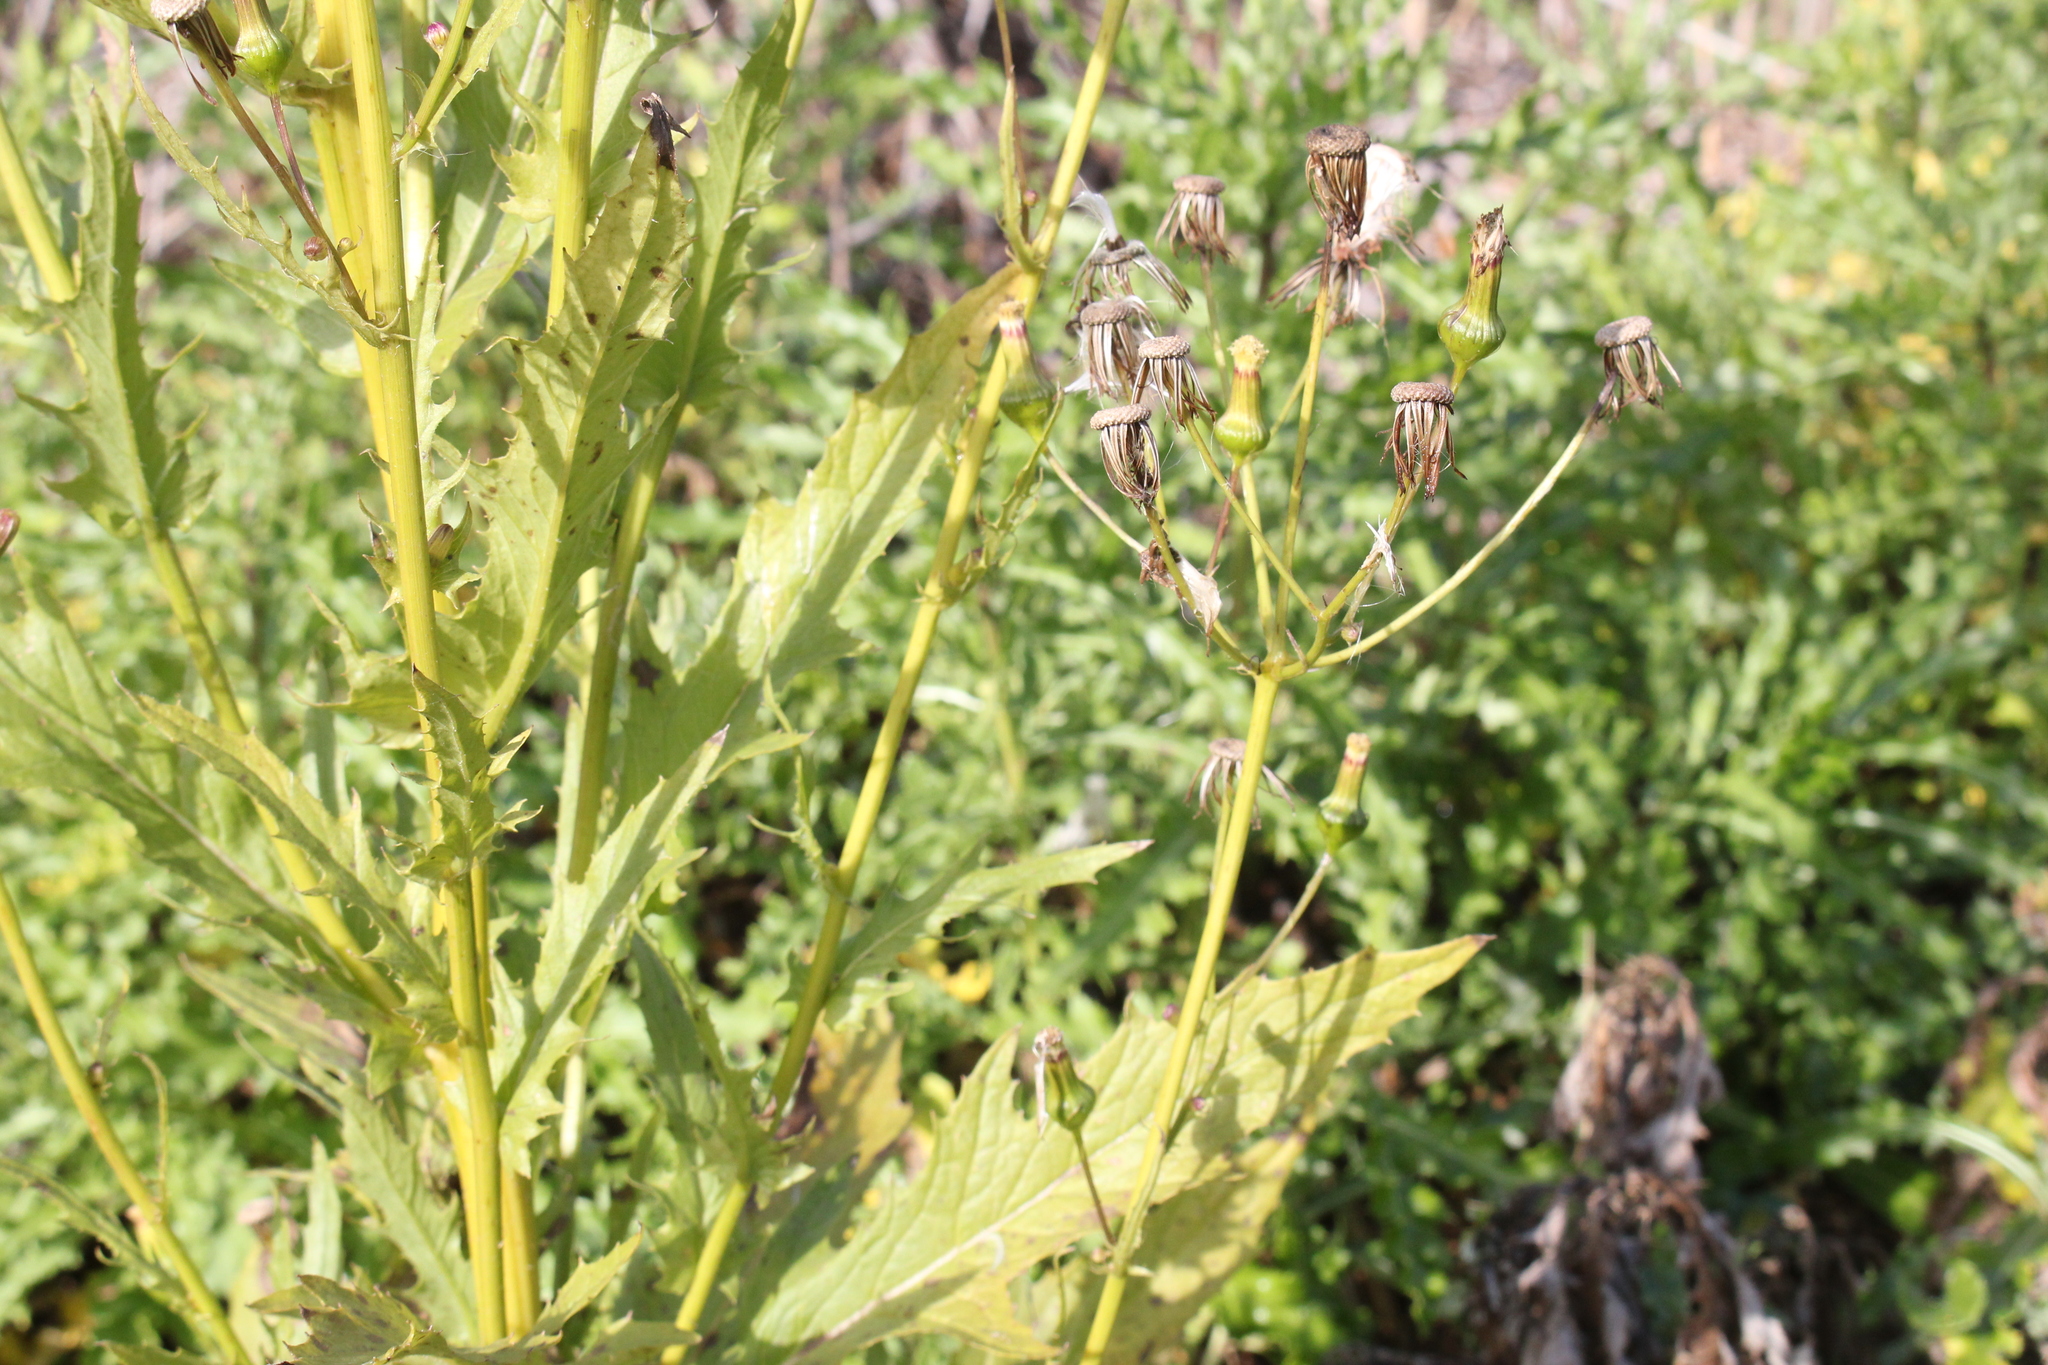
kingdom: Plantae
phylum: Tracheophyta
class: Magnoliopsida
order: Asterales
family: Asteraceae
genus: Erechtites
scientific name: Erechtites hieraciifolius
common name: American burnweed
